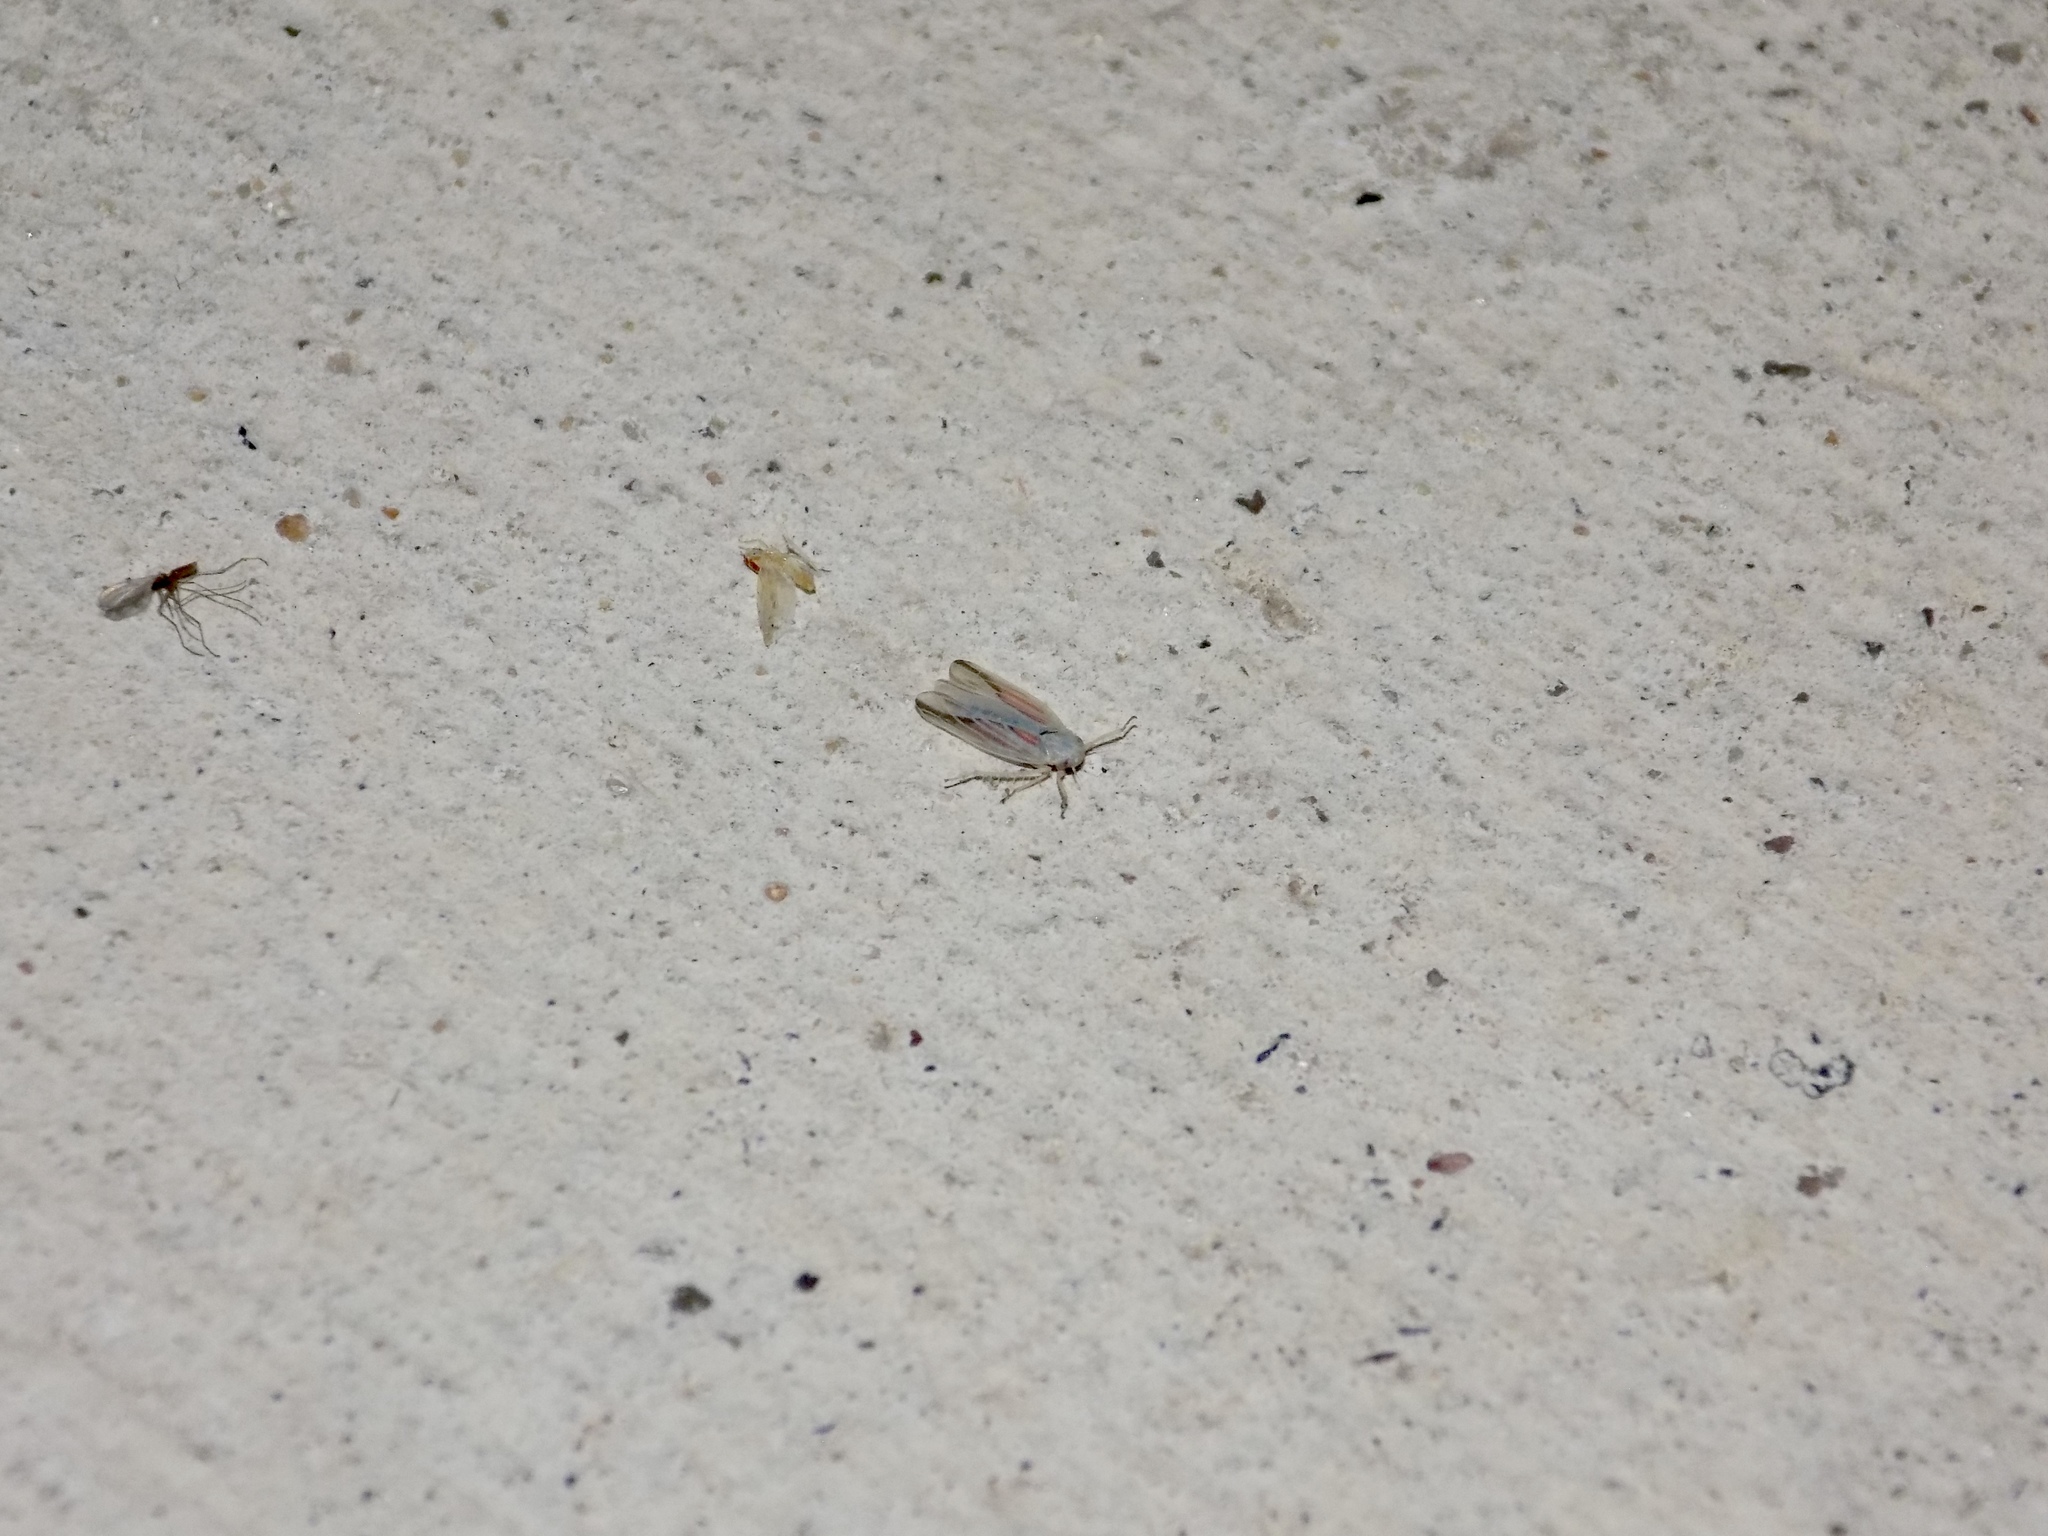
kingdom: Animalia
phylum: Arthropoda
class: Insecta
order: Hemiptera
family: Cicadellidae
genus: Balclutha
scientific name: Balclutha rubrostriata
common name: Red-streaked leafhopper
